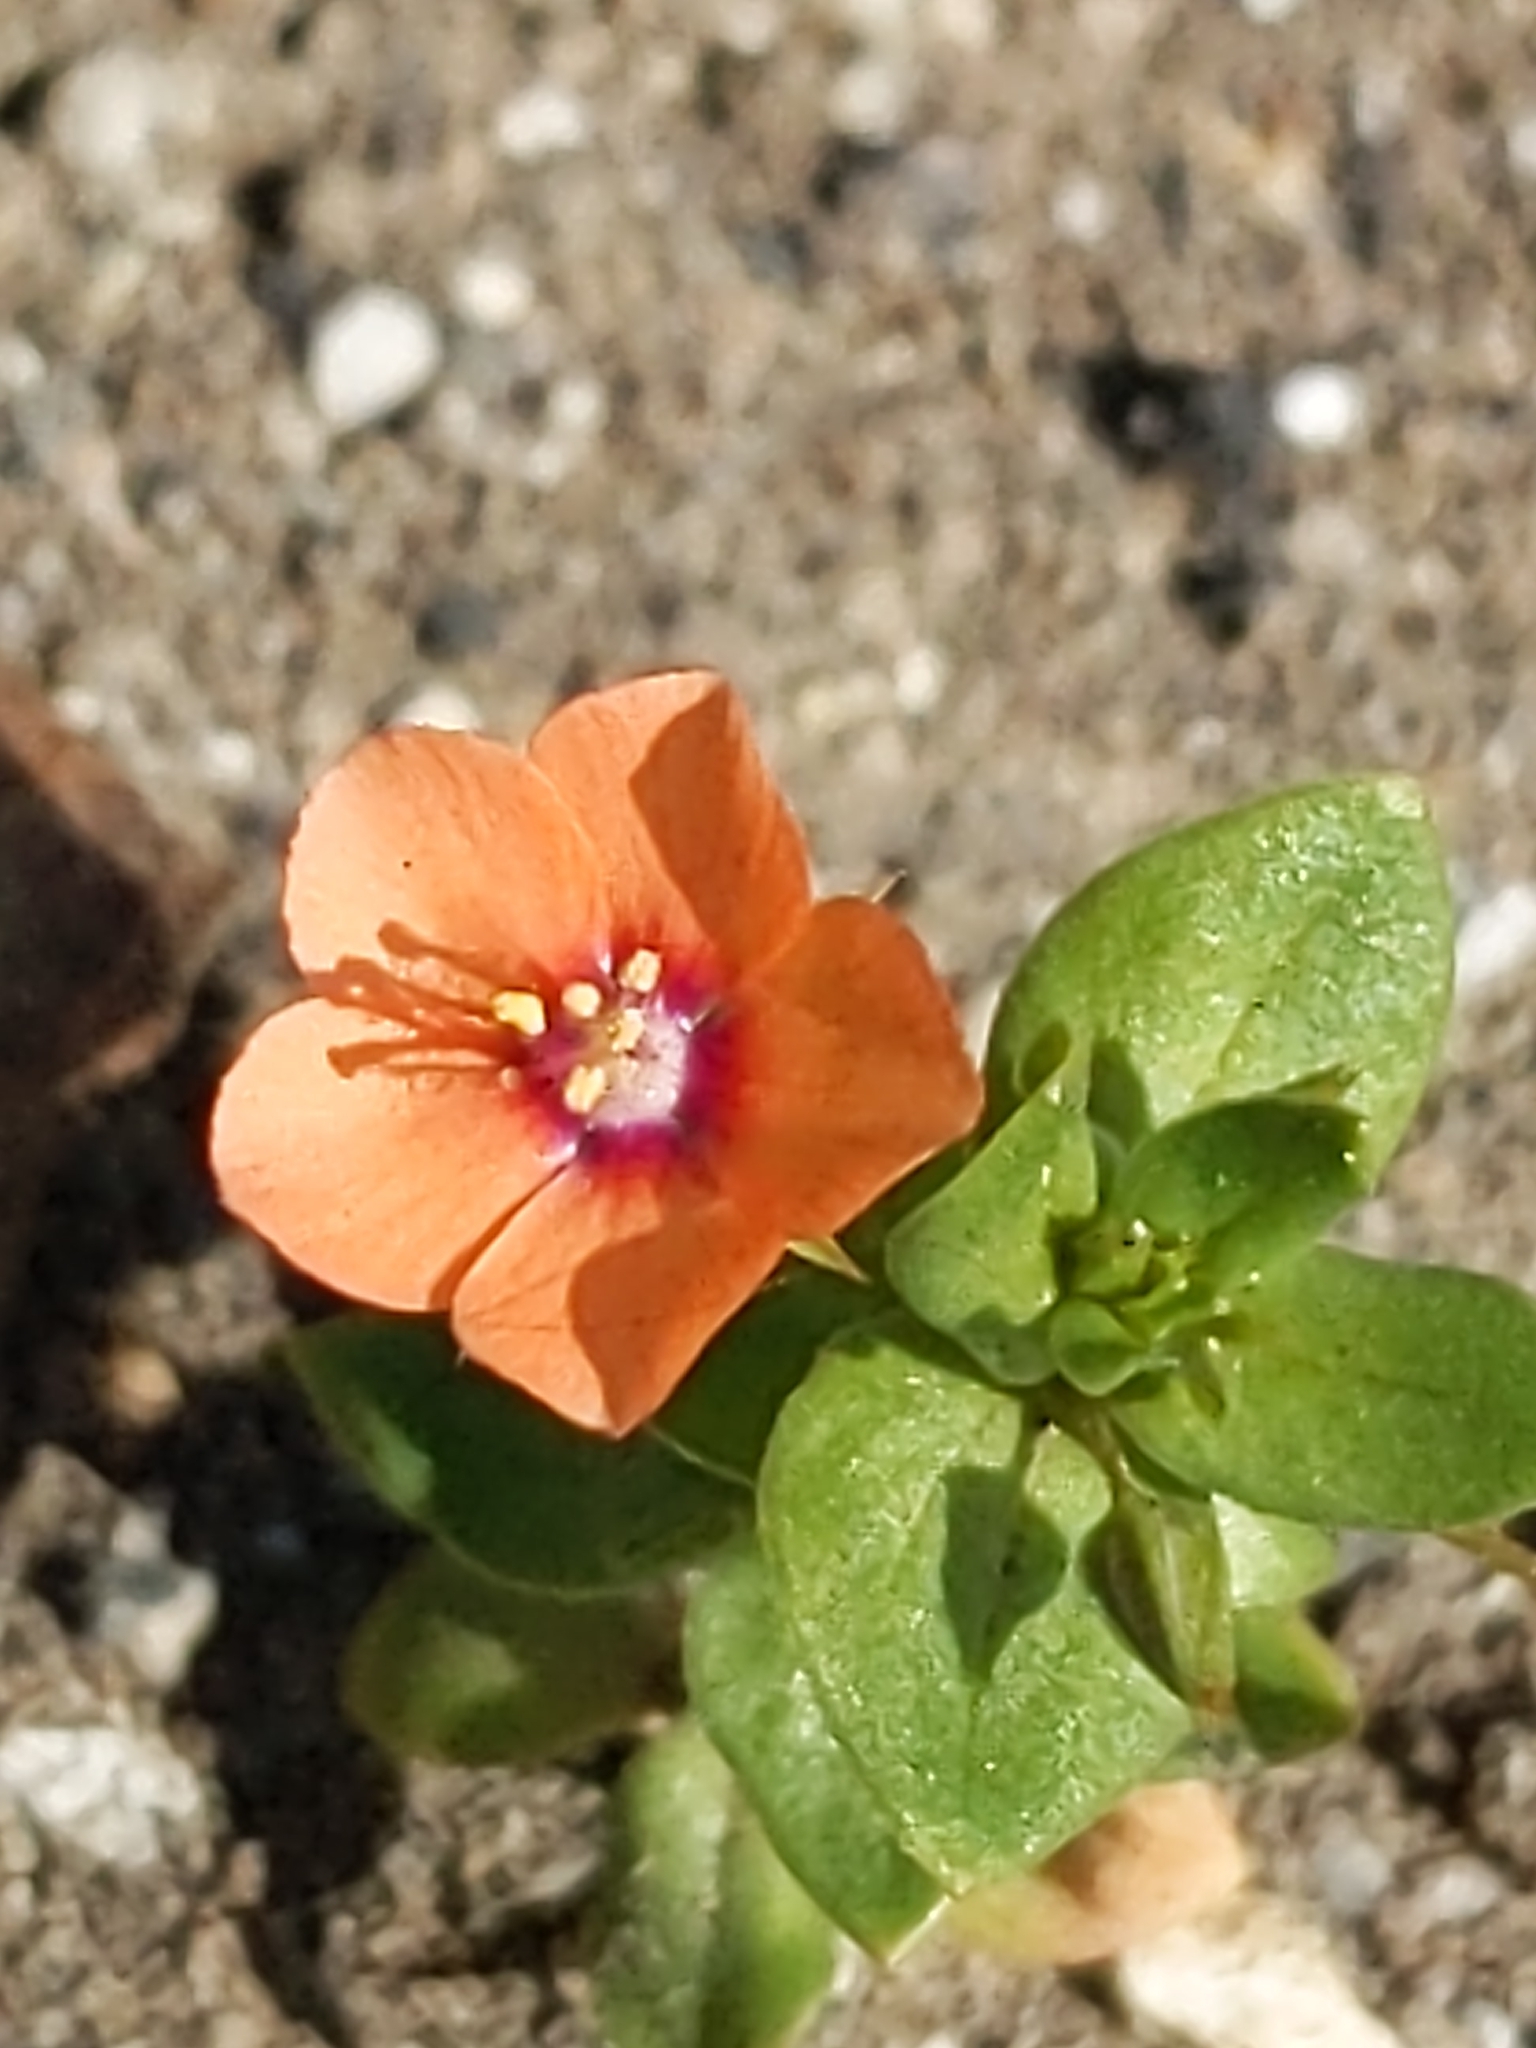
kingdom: Plantae
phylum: Tracheophyta
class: Magnoliopsida
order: Ericales
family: Primulaceae
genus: Lysimachia
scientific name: Lysimachia arvensis
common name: Scarlet pimpernel
